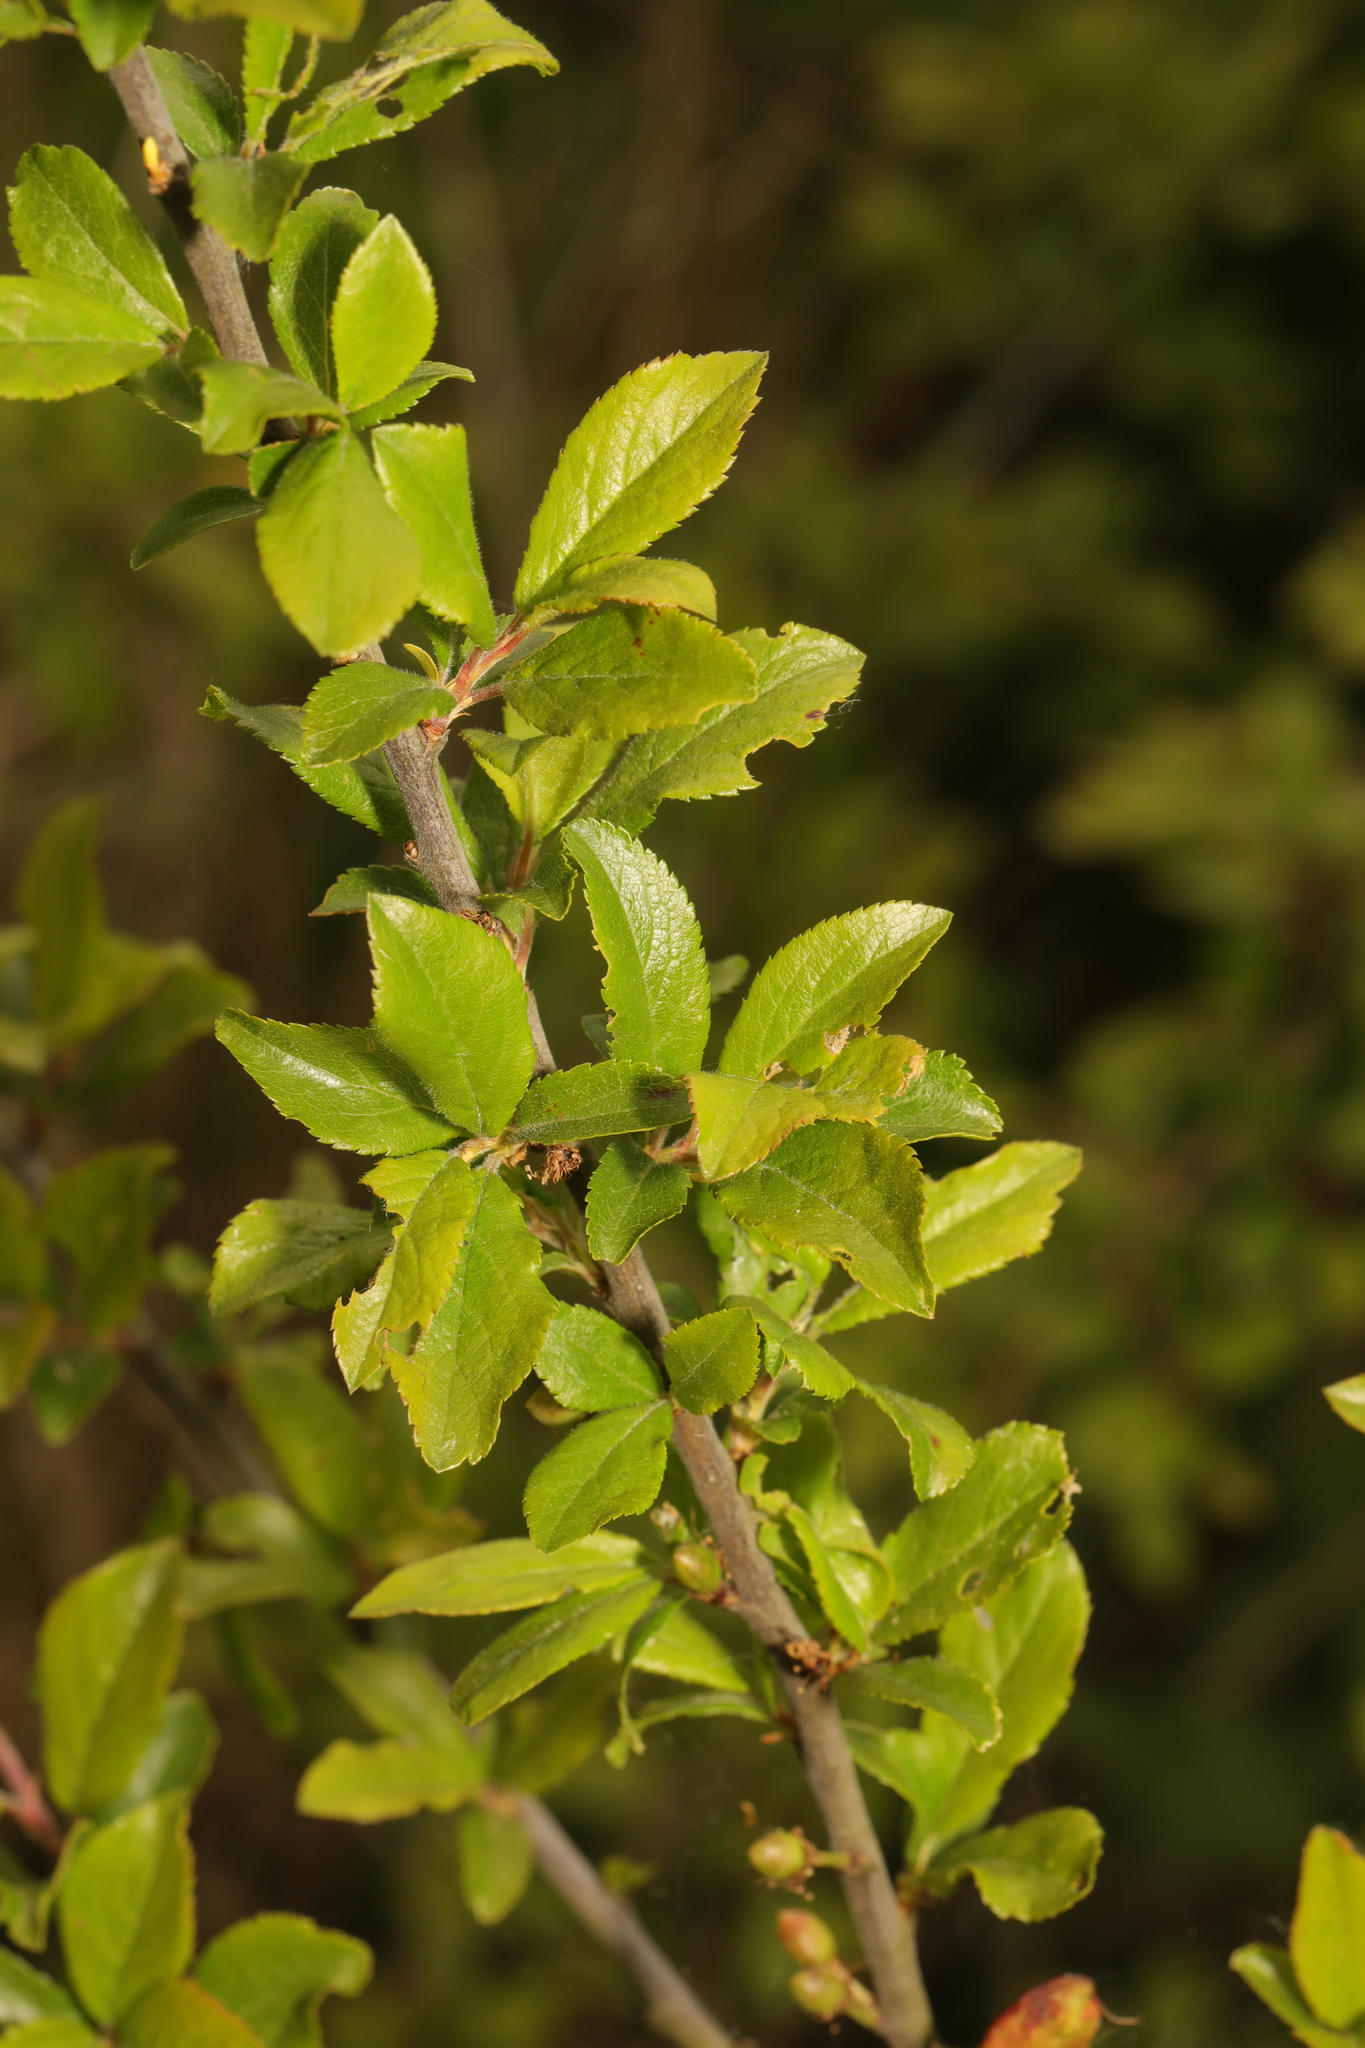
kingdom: Plantae
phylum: Tracheophyta
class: Magnoliopsida
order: Rosales
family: Rosaceae
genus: Prunus
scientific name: Prunus spinosa
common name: Blackthorn
